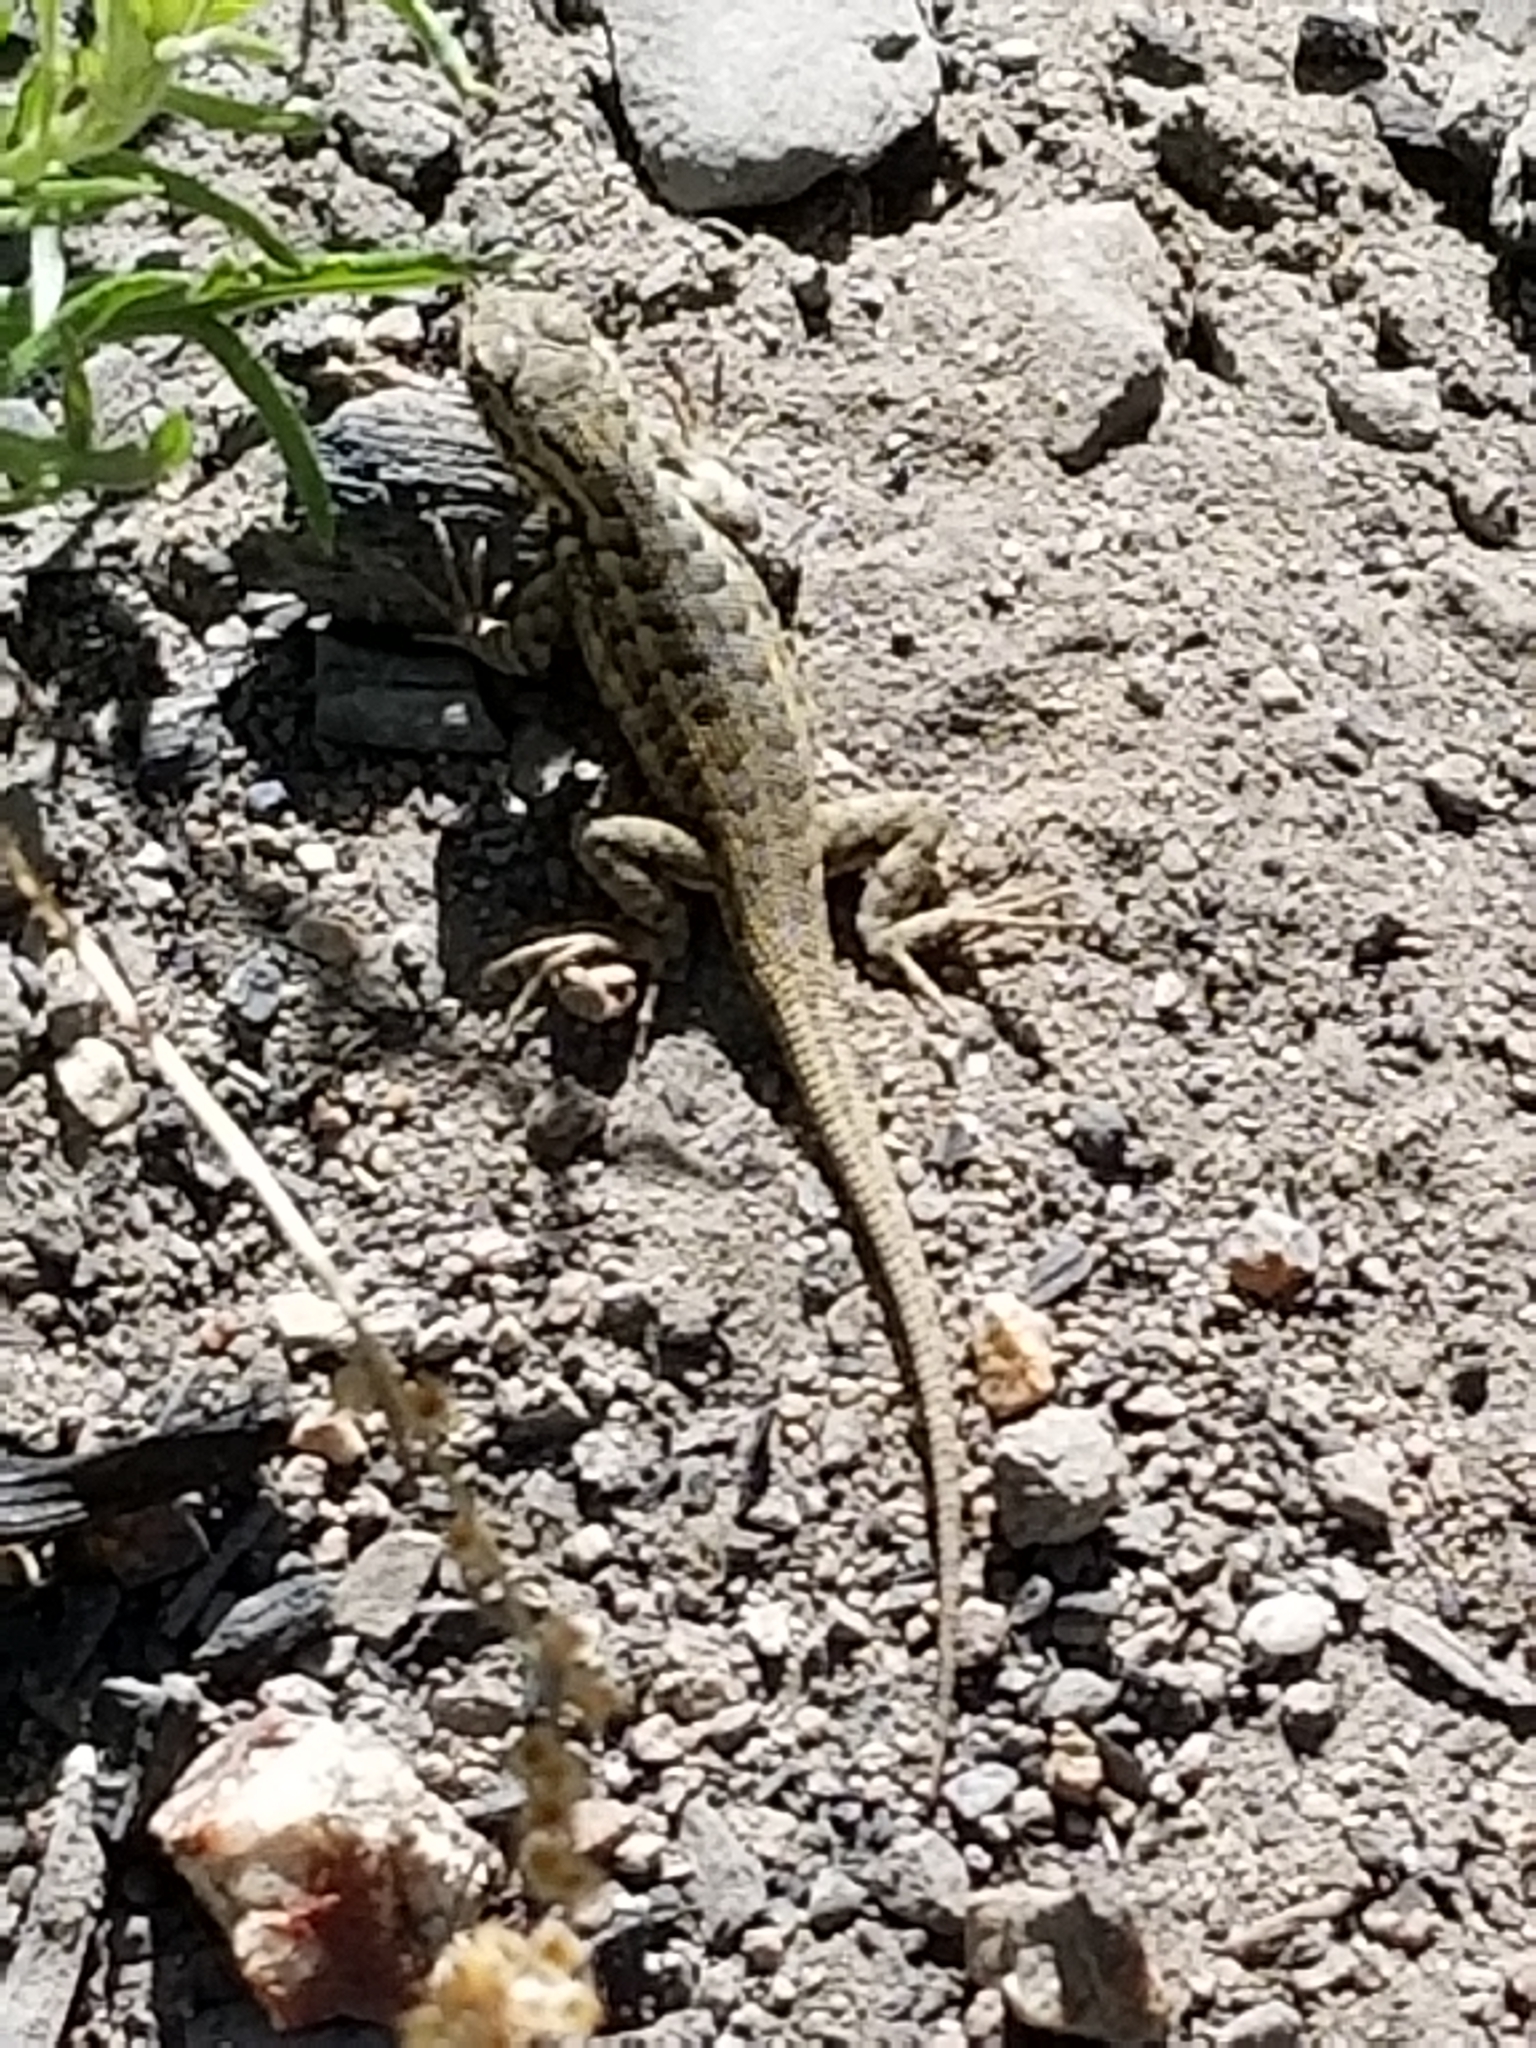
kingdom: Animalia
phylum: Chordata
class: Squamata
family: Phrynosomatidae
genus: Sceloporus
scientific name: Sceloporus graciosus
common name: Sagebrush lizard
